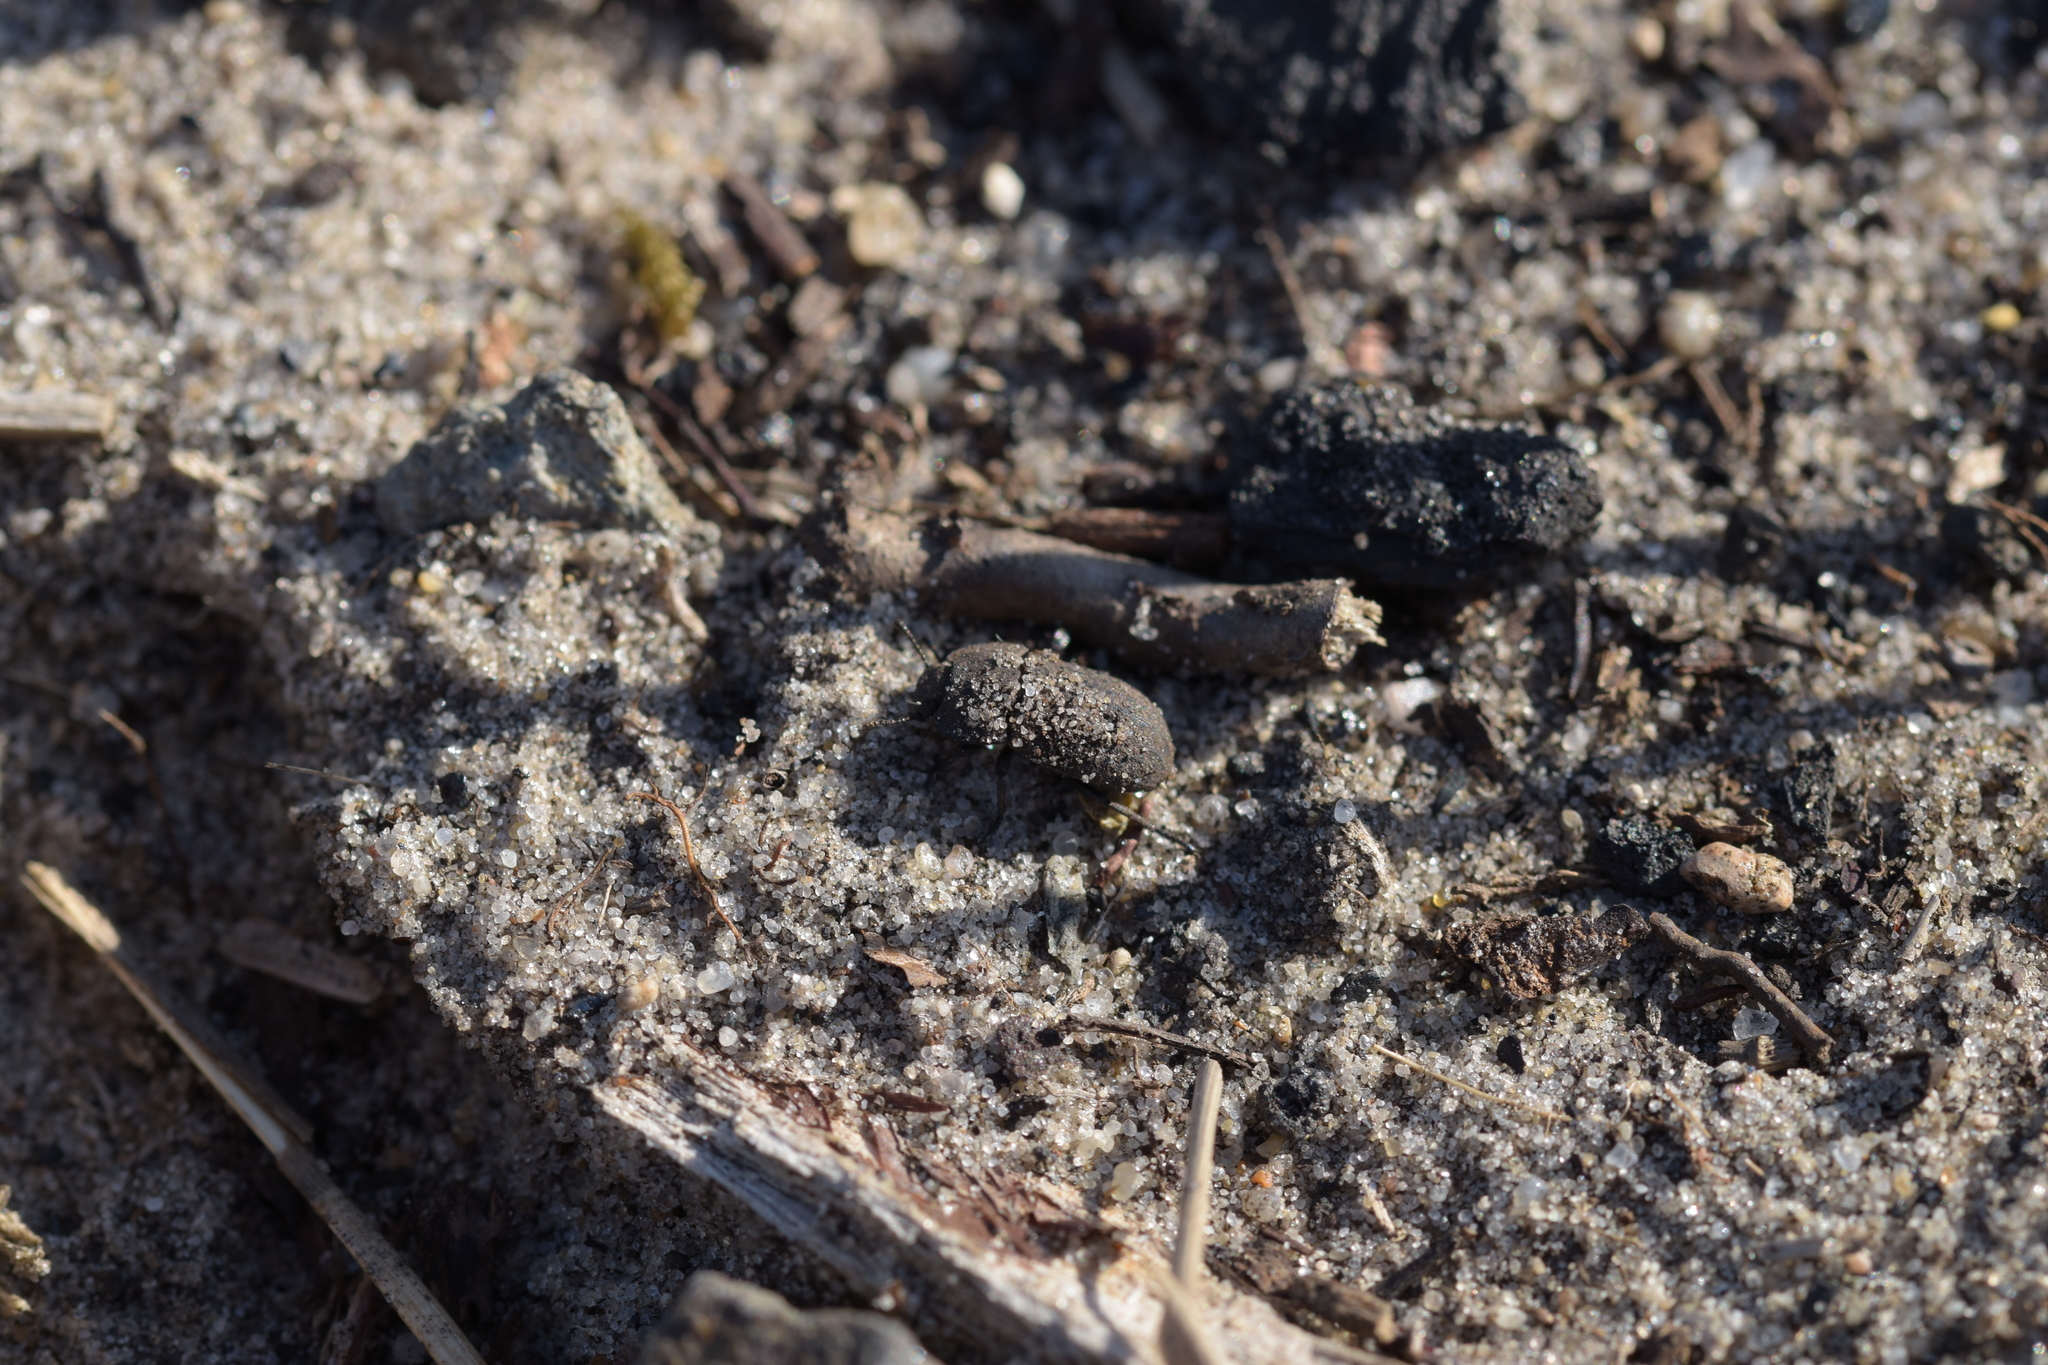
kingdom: Animalia
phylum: Arthropoda
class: Insecta
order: Coleoptera
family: Tenebrionidae
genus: Opatrum
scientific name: Opatrum sabulosum
